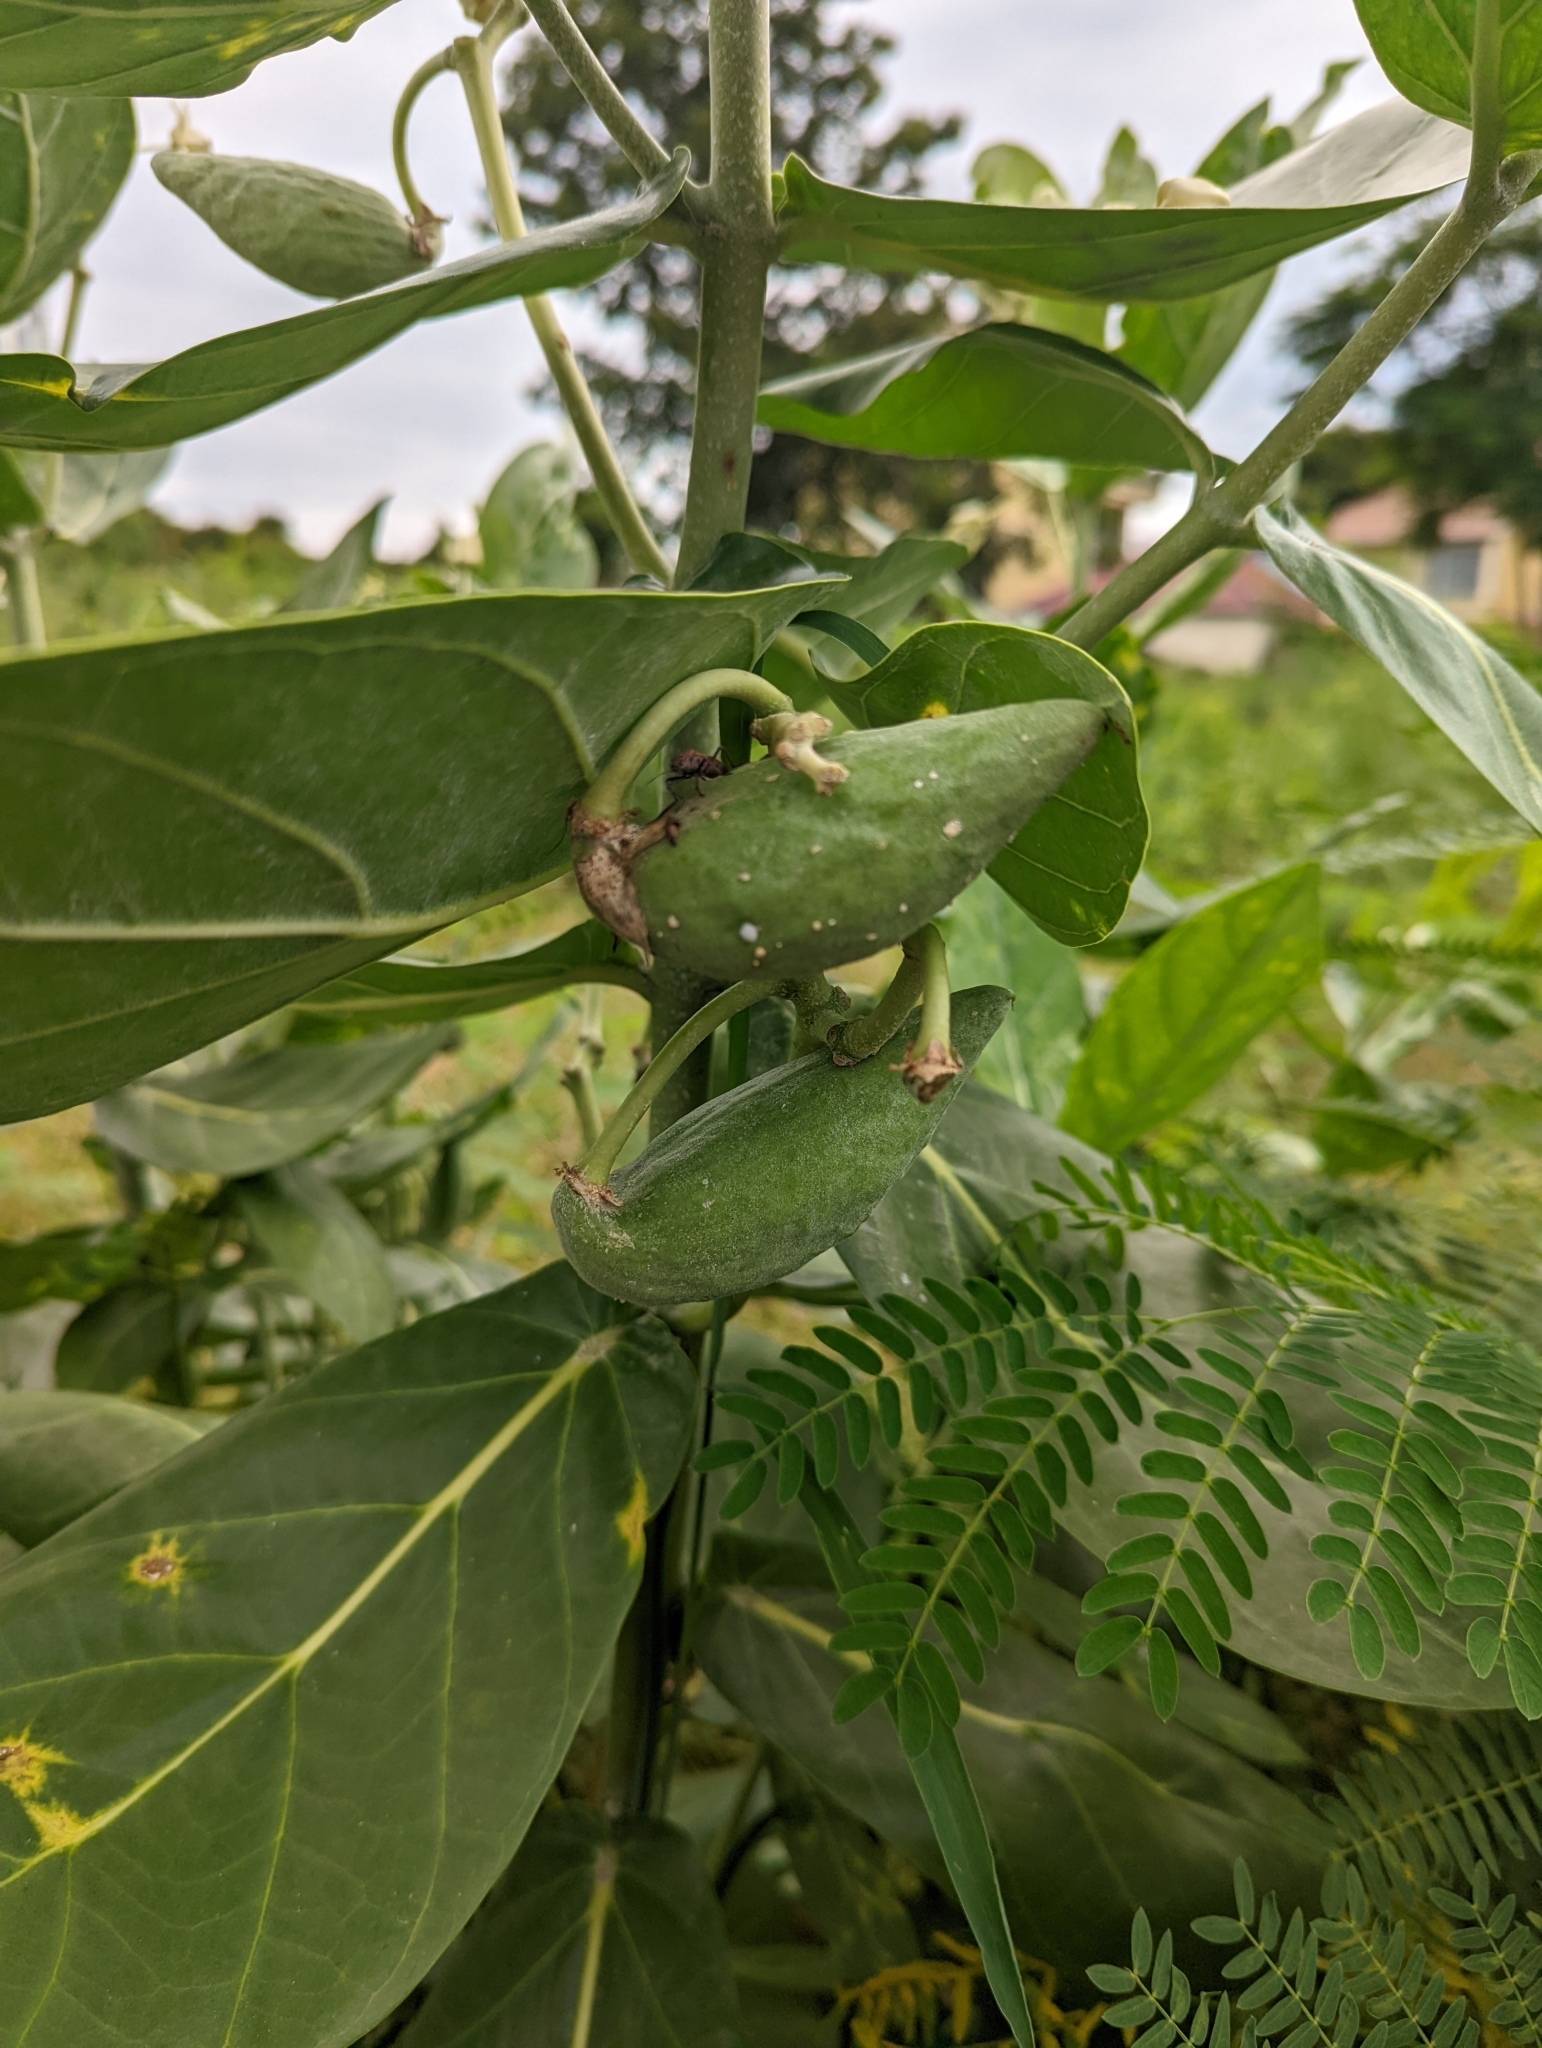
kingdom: Plantae
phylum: Tracheophyta
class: Magnoliopsida
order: Gentianales
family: Apocynaceae
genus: Calotropis
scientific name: Calotropis gigantea
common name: Crown flower
